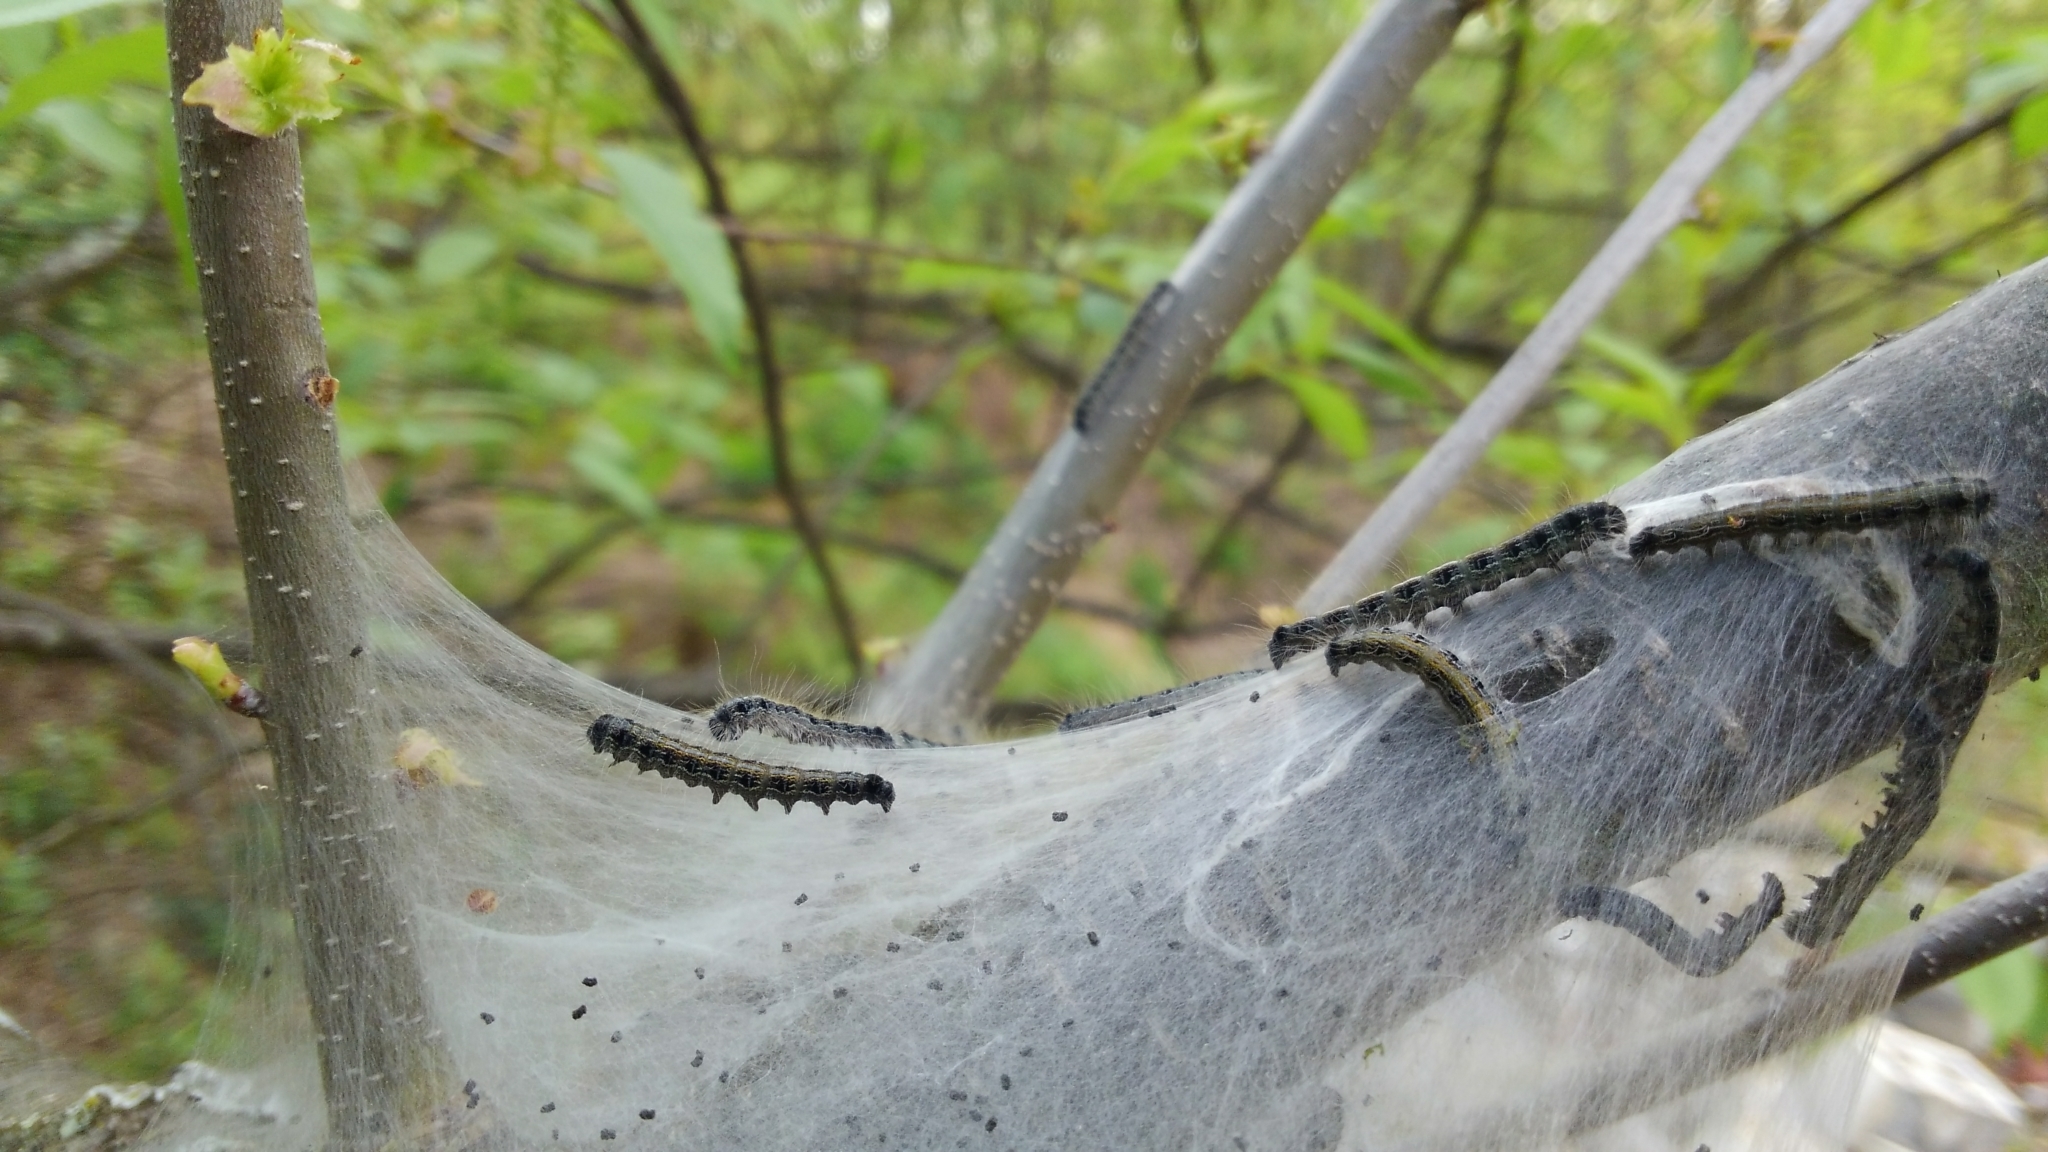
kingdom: Animalia
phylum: Arthropoda
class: Insecta
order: Lepidoptera
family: Lasiocampidae
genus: Malacosoma
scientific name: Malacosoma americana
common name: Eastern tent caterpillar moth
